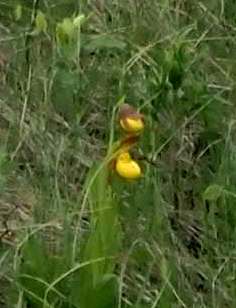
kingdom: Plantae
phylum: Tracheophyta
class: Liliopsida
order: Asparagales
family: Orchidaceae
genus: Cypripedium
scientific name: Cypripedium parviflorum
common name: American yellow lady's-slipper
